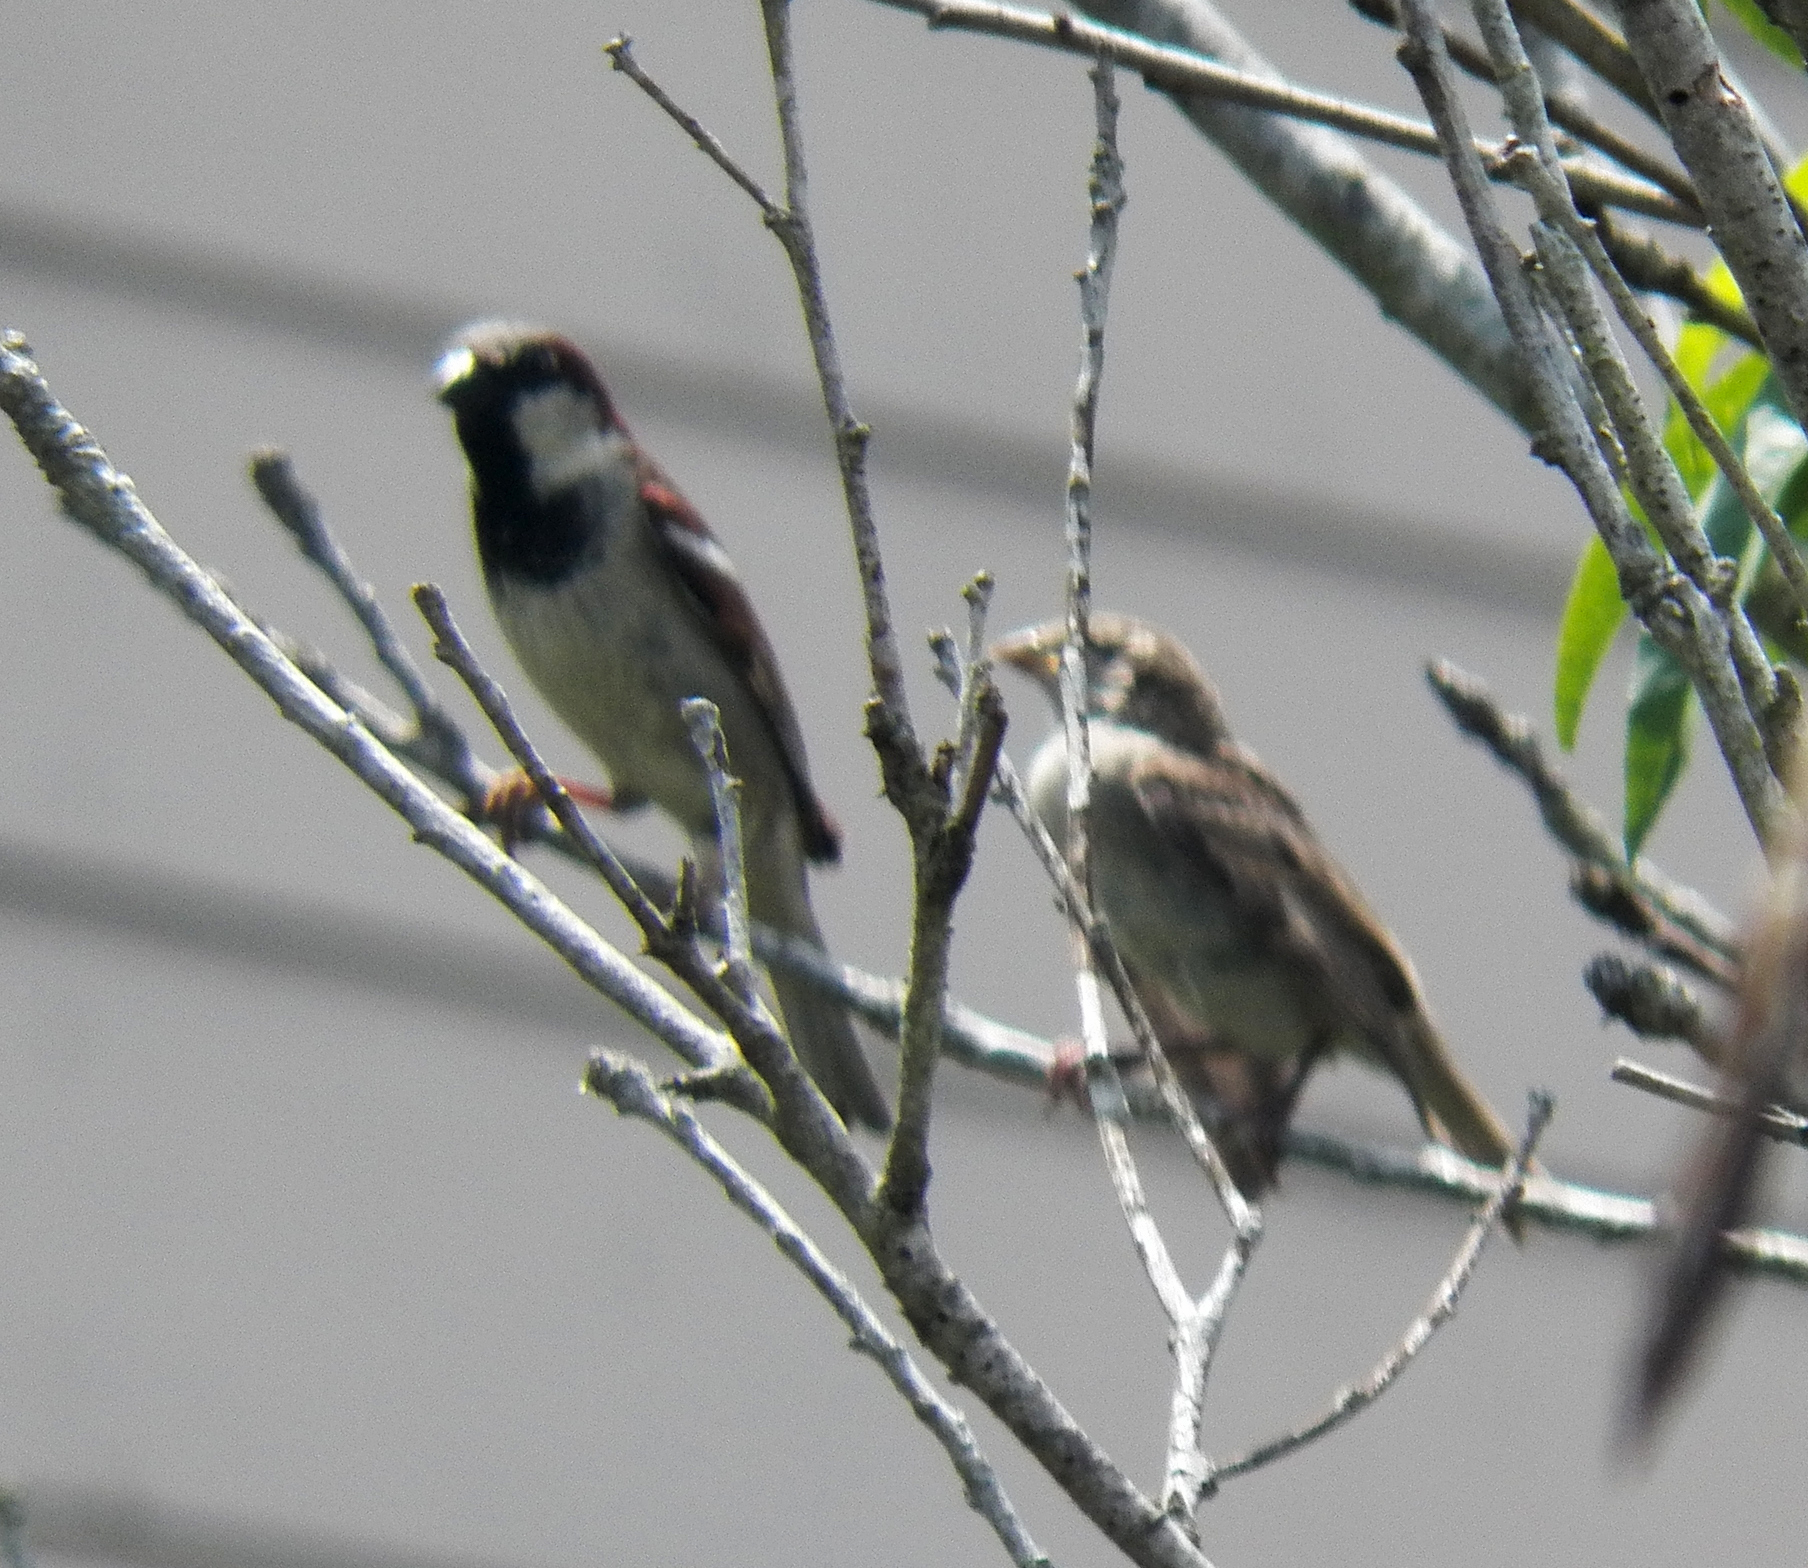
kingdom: Animalia
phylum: Chordata
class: Aves
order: Passeriformes
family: Passeridae
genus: Passer
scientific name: Passer domesticus
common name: House sparrow
